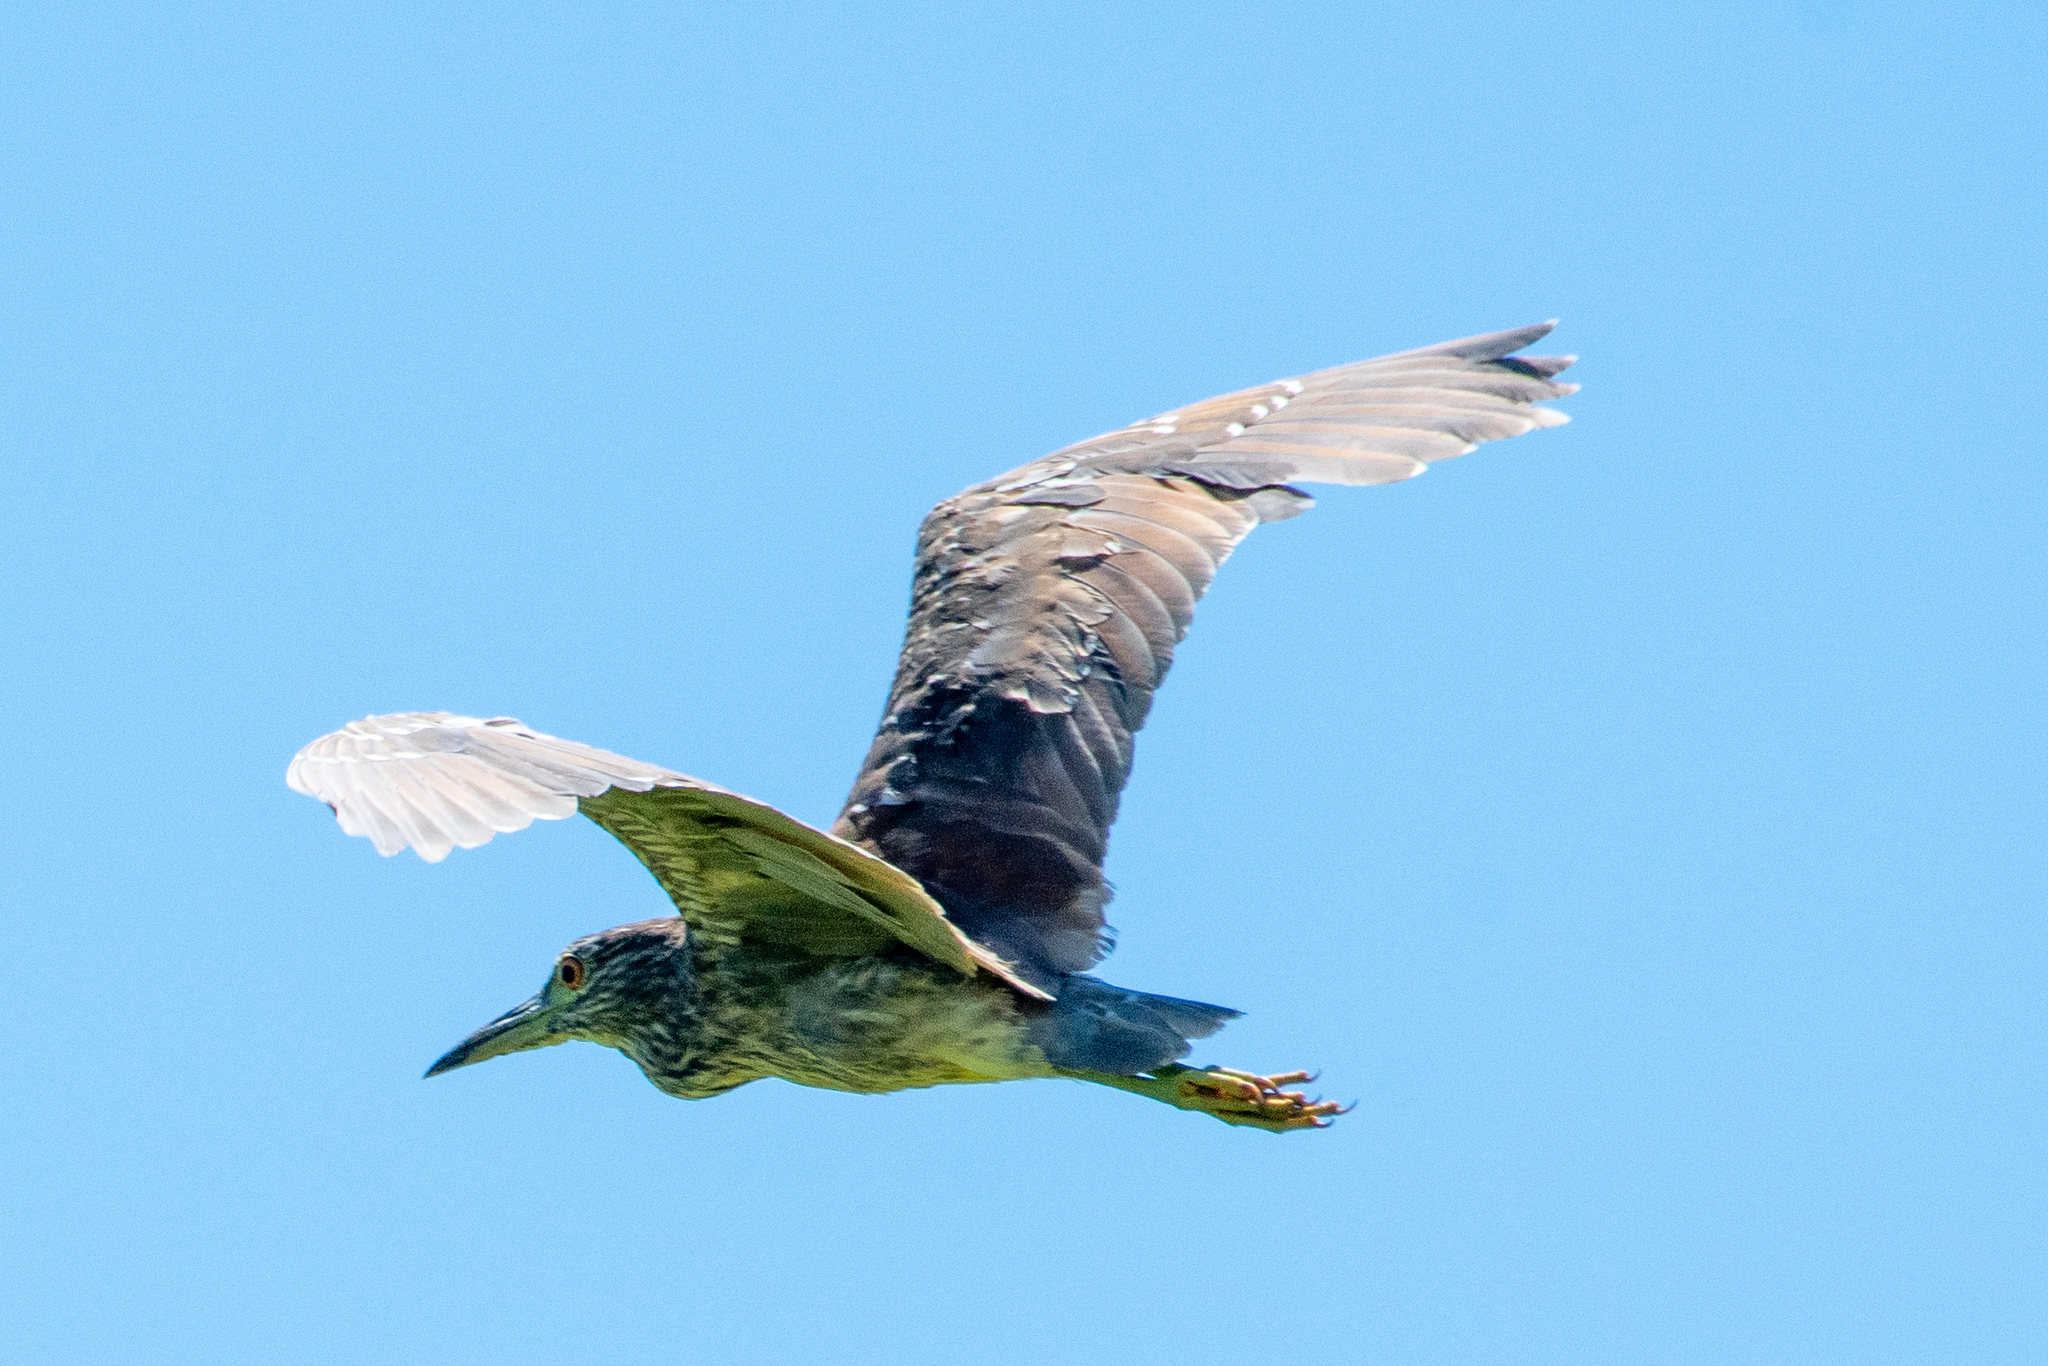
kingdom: Animalia
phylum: Chordata
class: Aves
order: Pelecaniformes
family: Ardeidae
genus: Nycticorax
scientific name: Nycticorax nycticorax
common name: Black-crowned night heron
